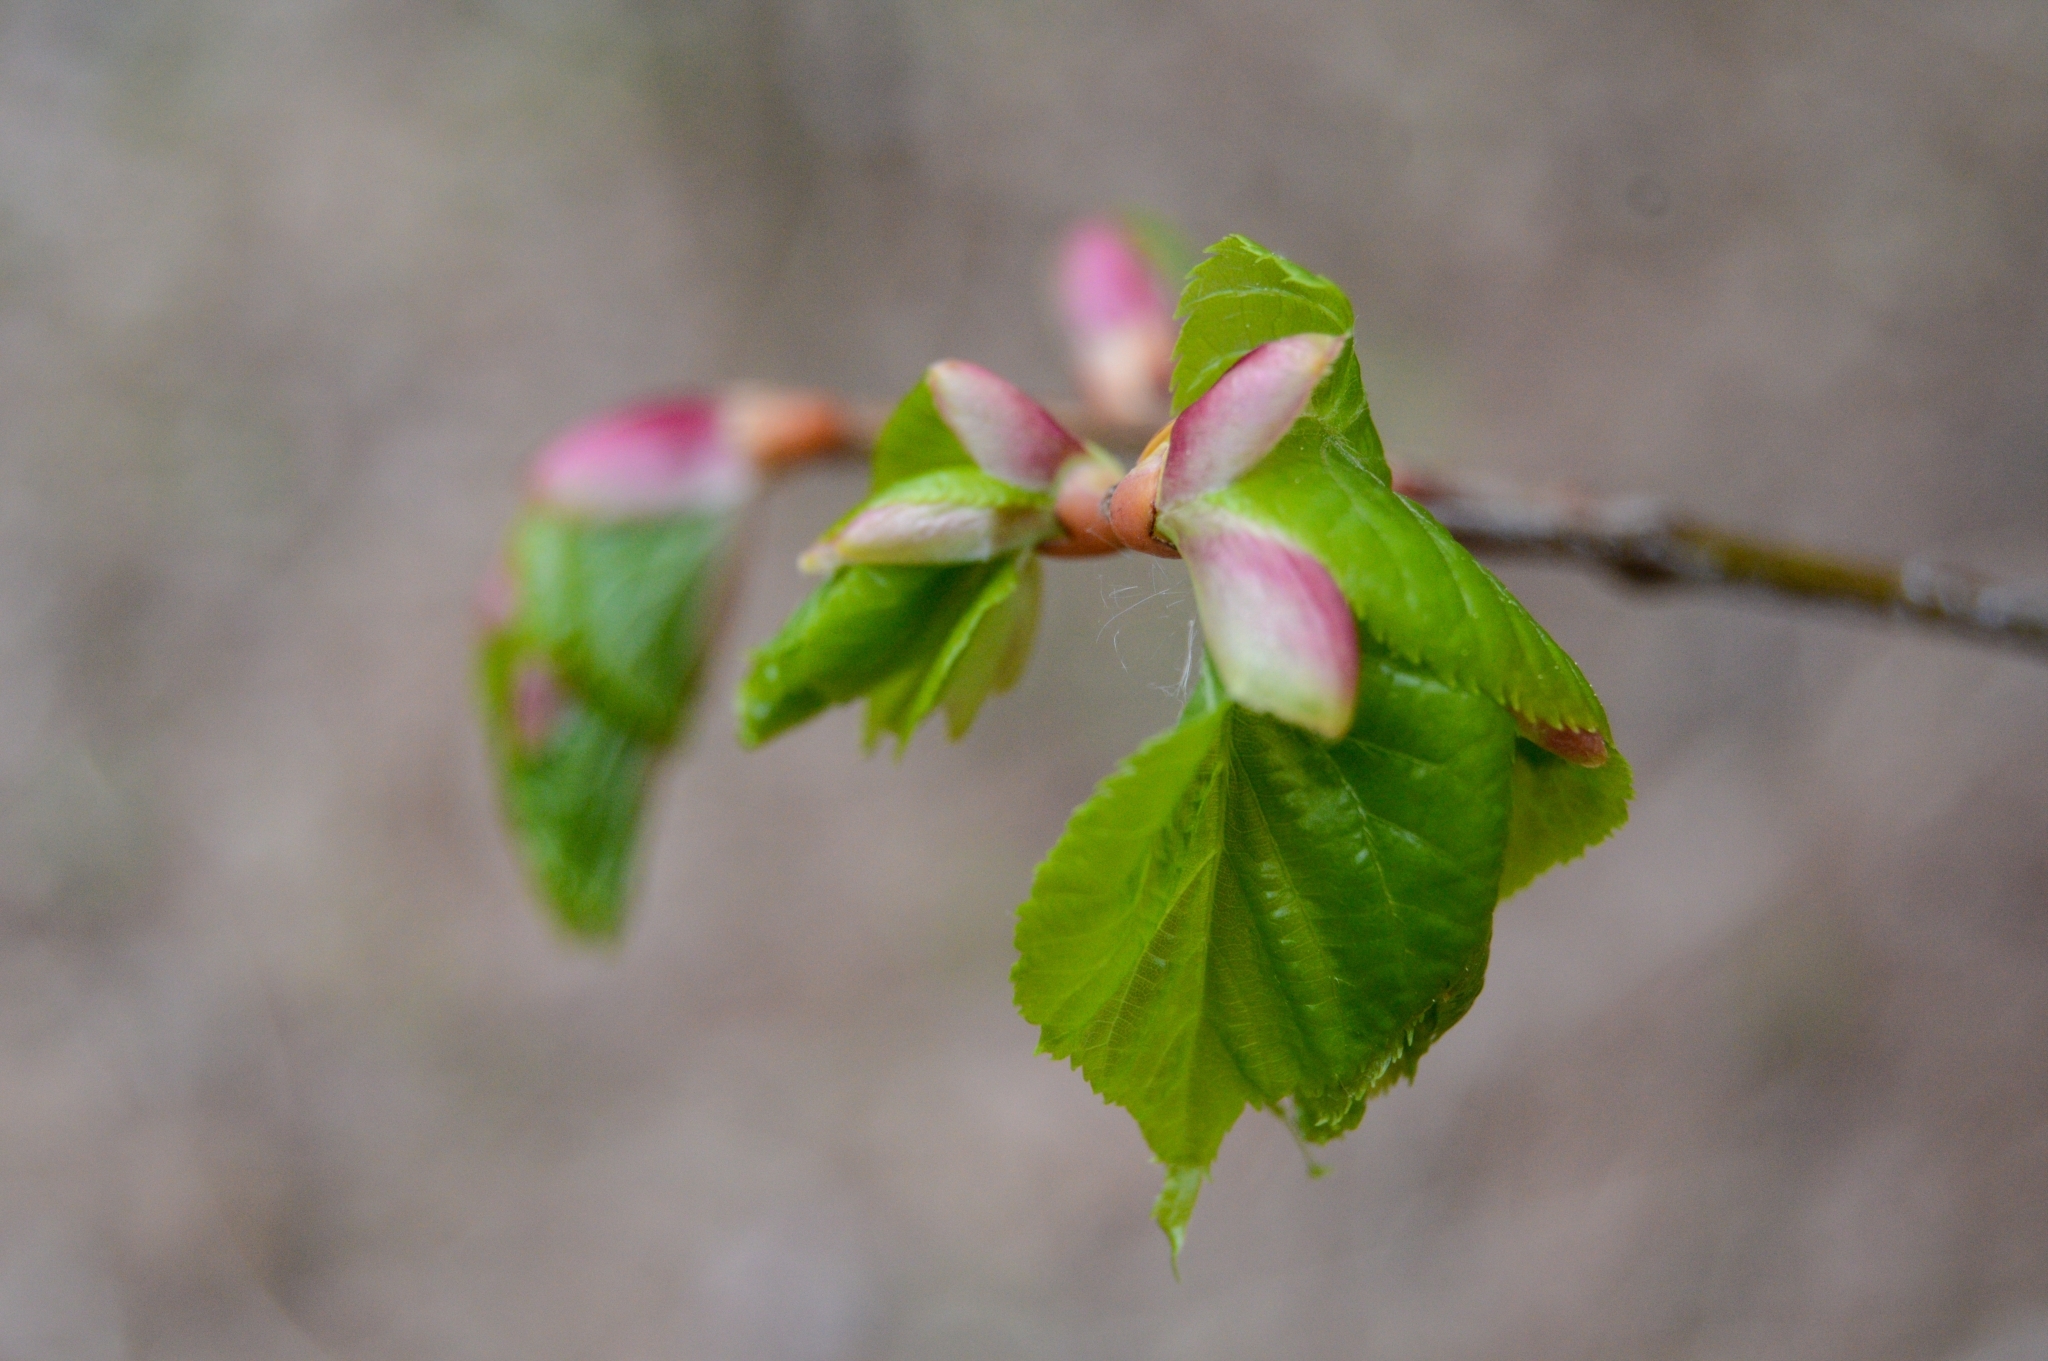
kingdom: Plantae
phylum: Tracheophyta
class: Magnoliopsida
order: Malvales
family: Malvaceae
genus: Tilia
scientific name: Tilia cordata
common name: Small-leaved lime
